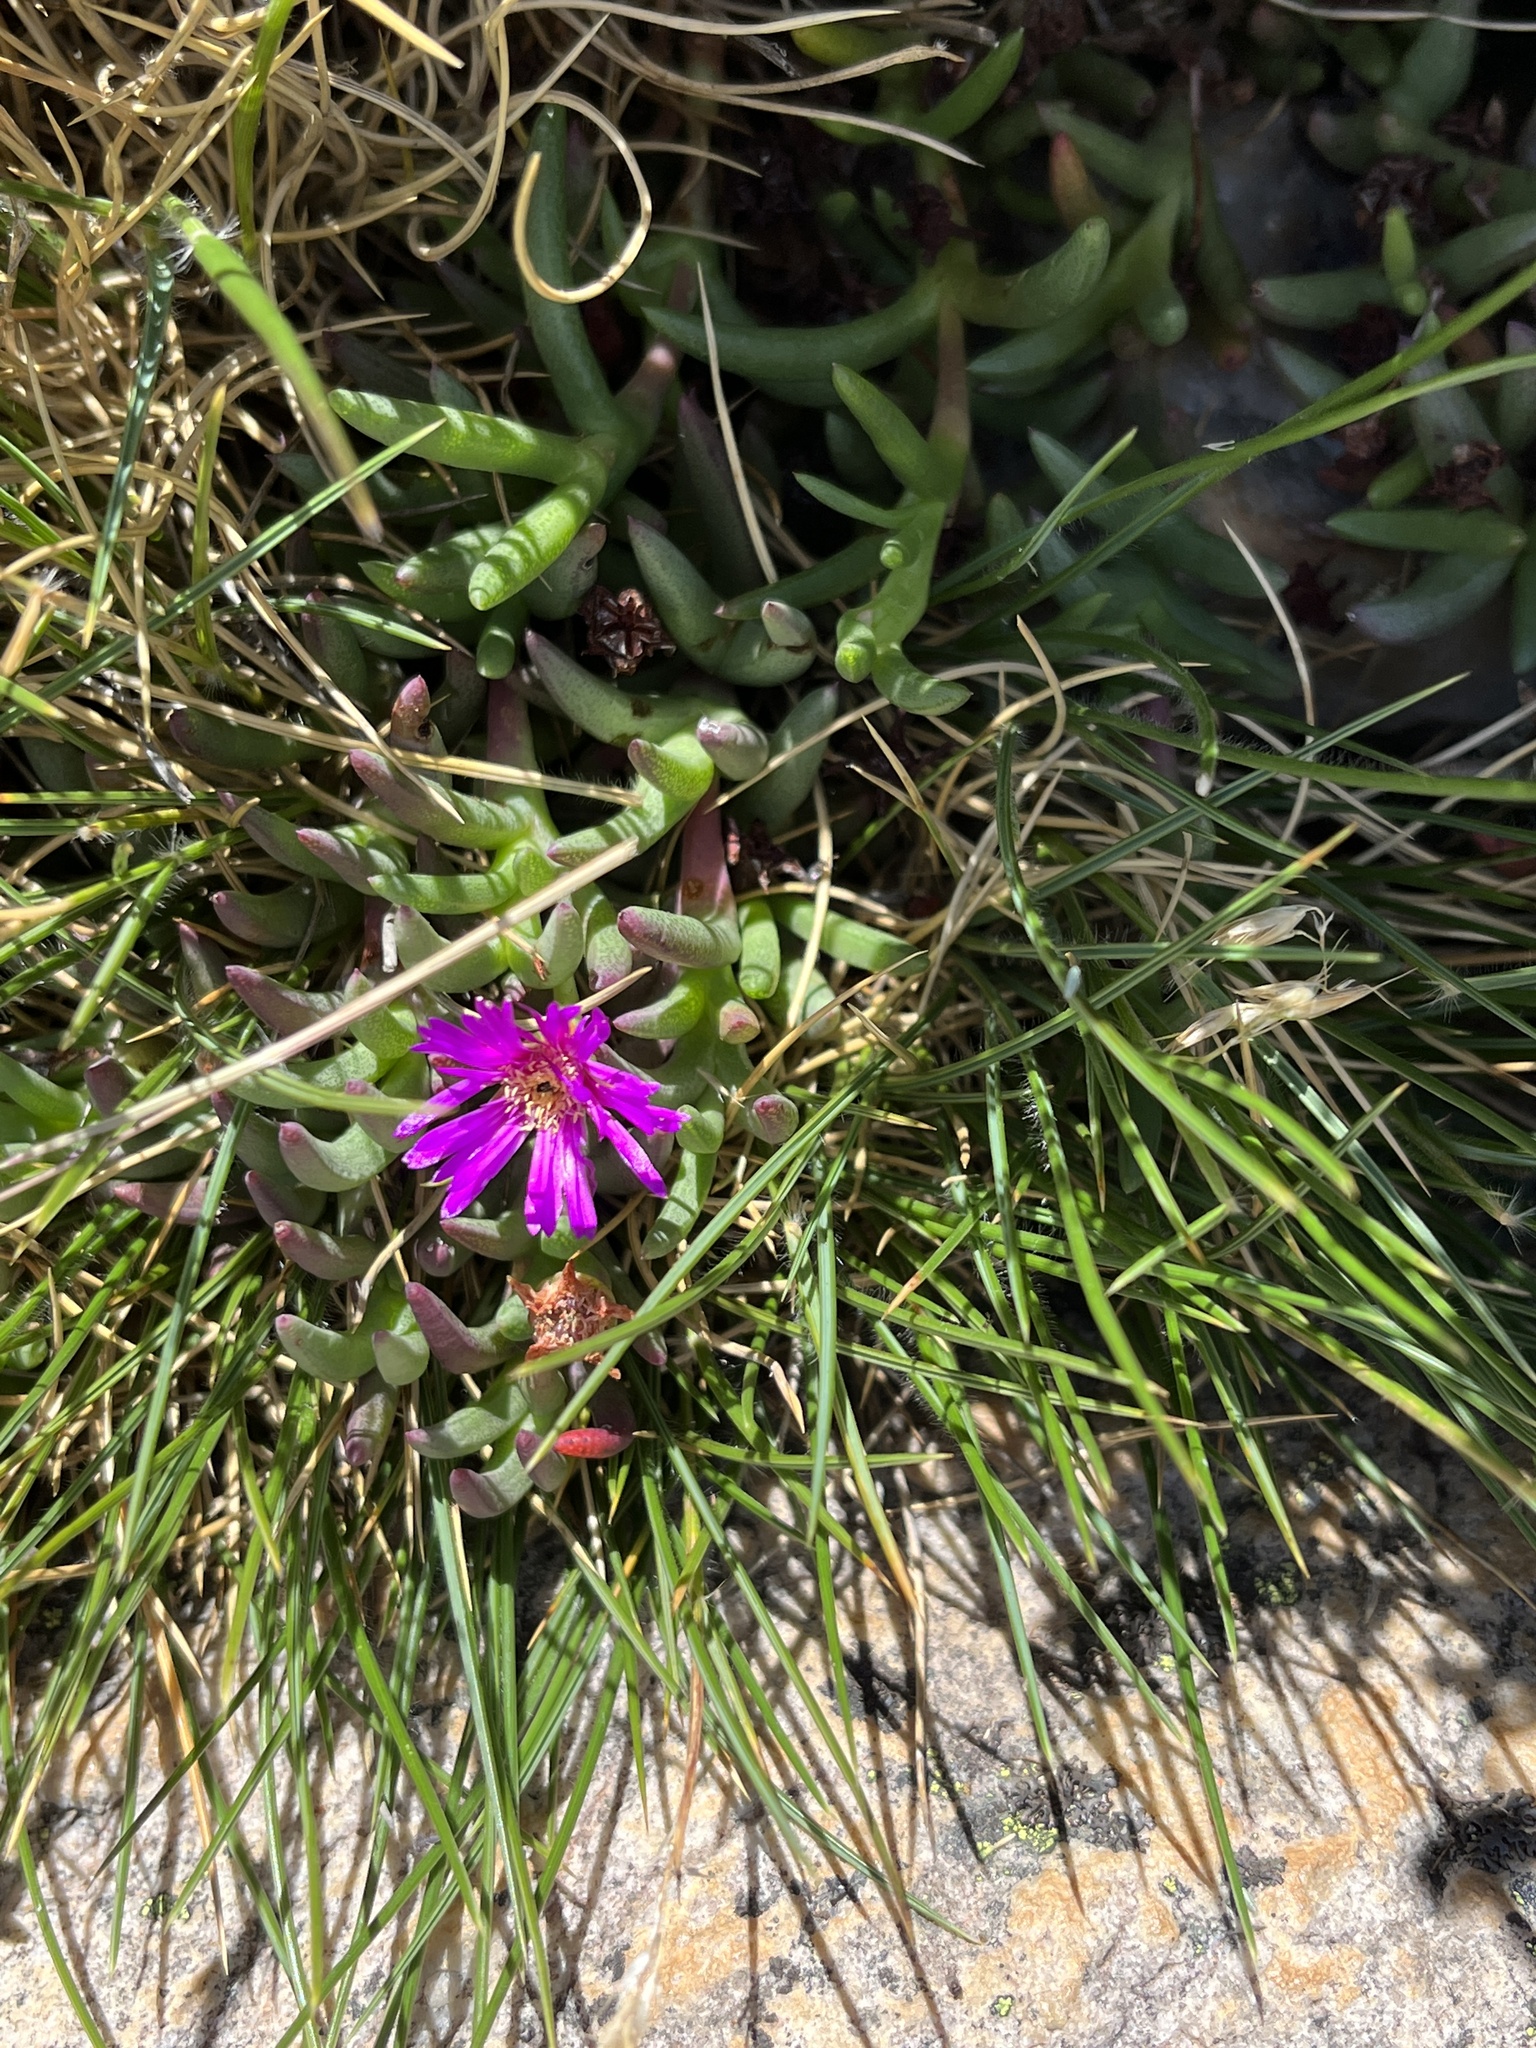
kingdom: Plantae
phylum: Tracheophyta
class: Magnoliopsida
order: Caryophyllales
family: Aizoaceae
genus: Ruschia
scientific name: Ruschia altigena
